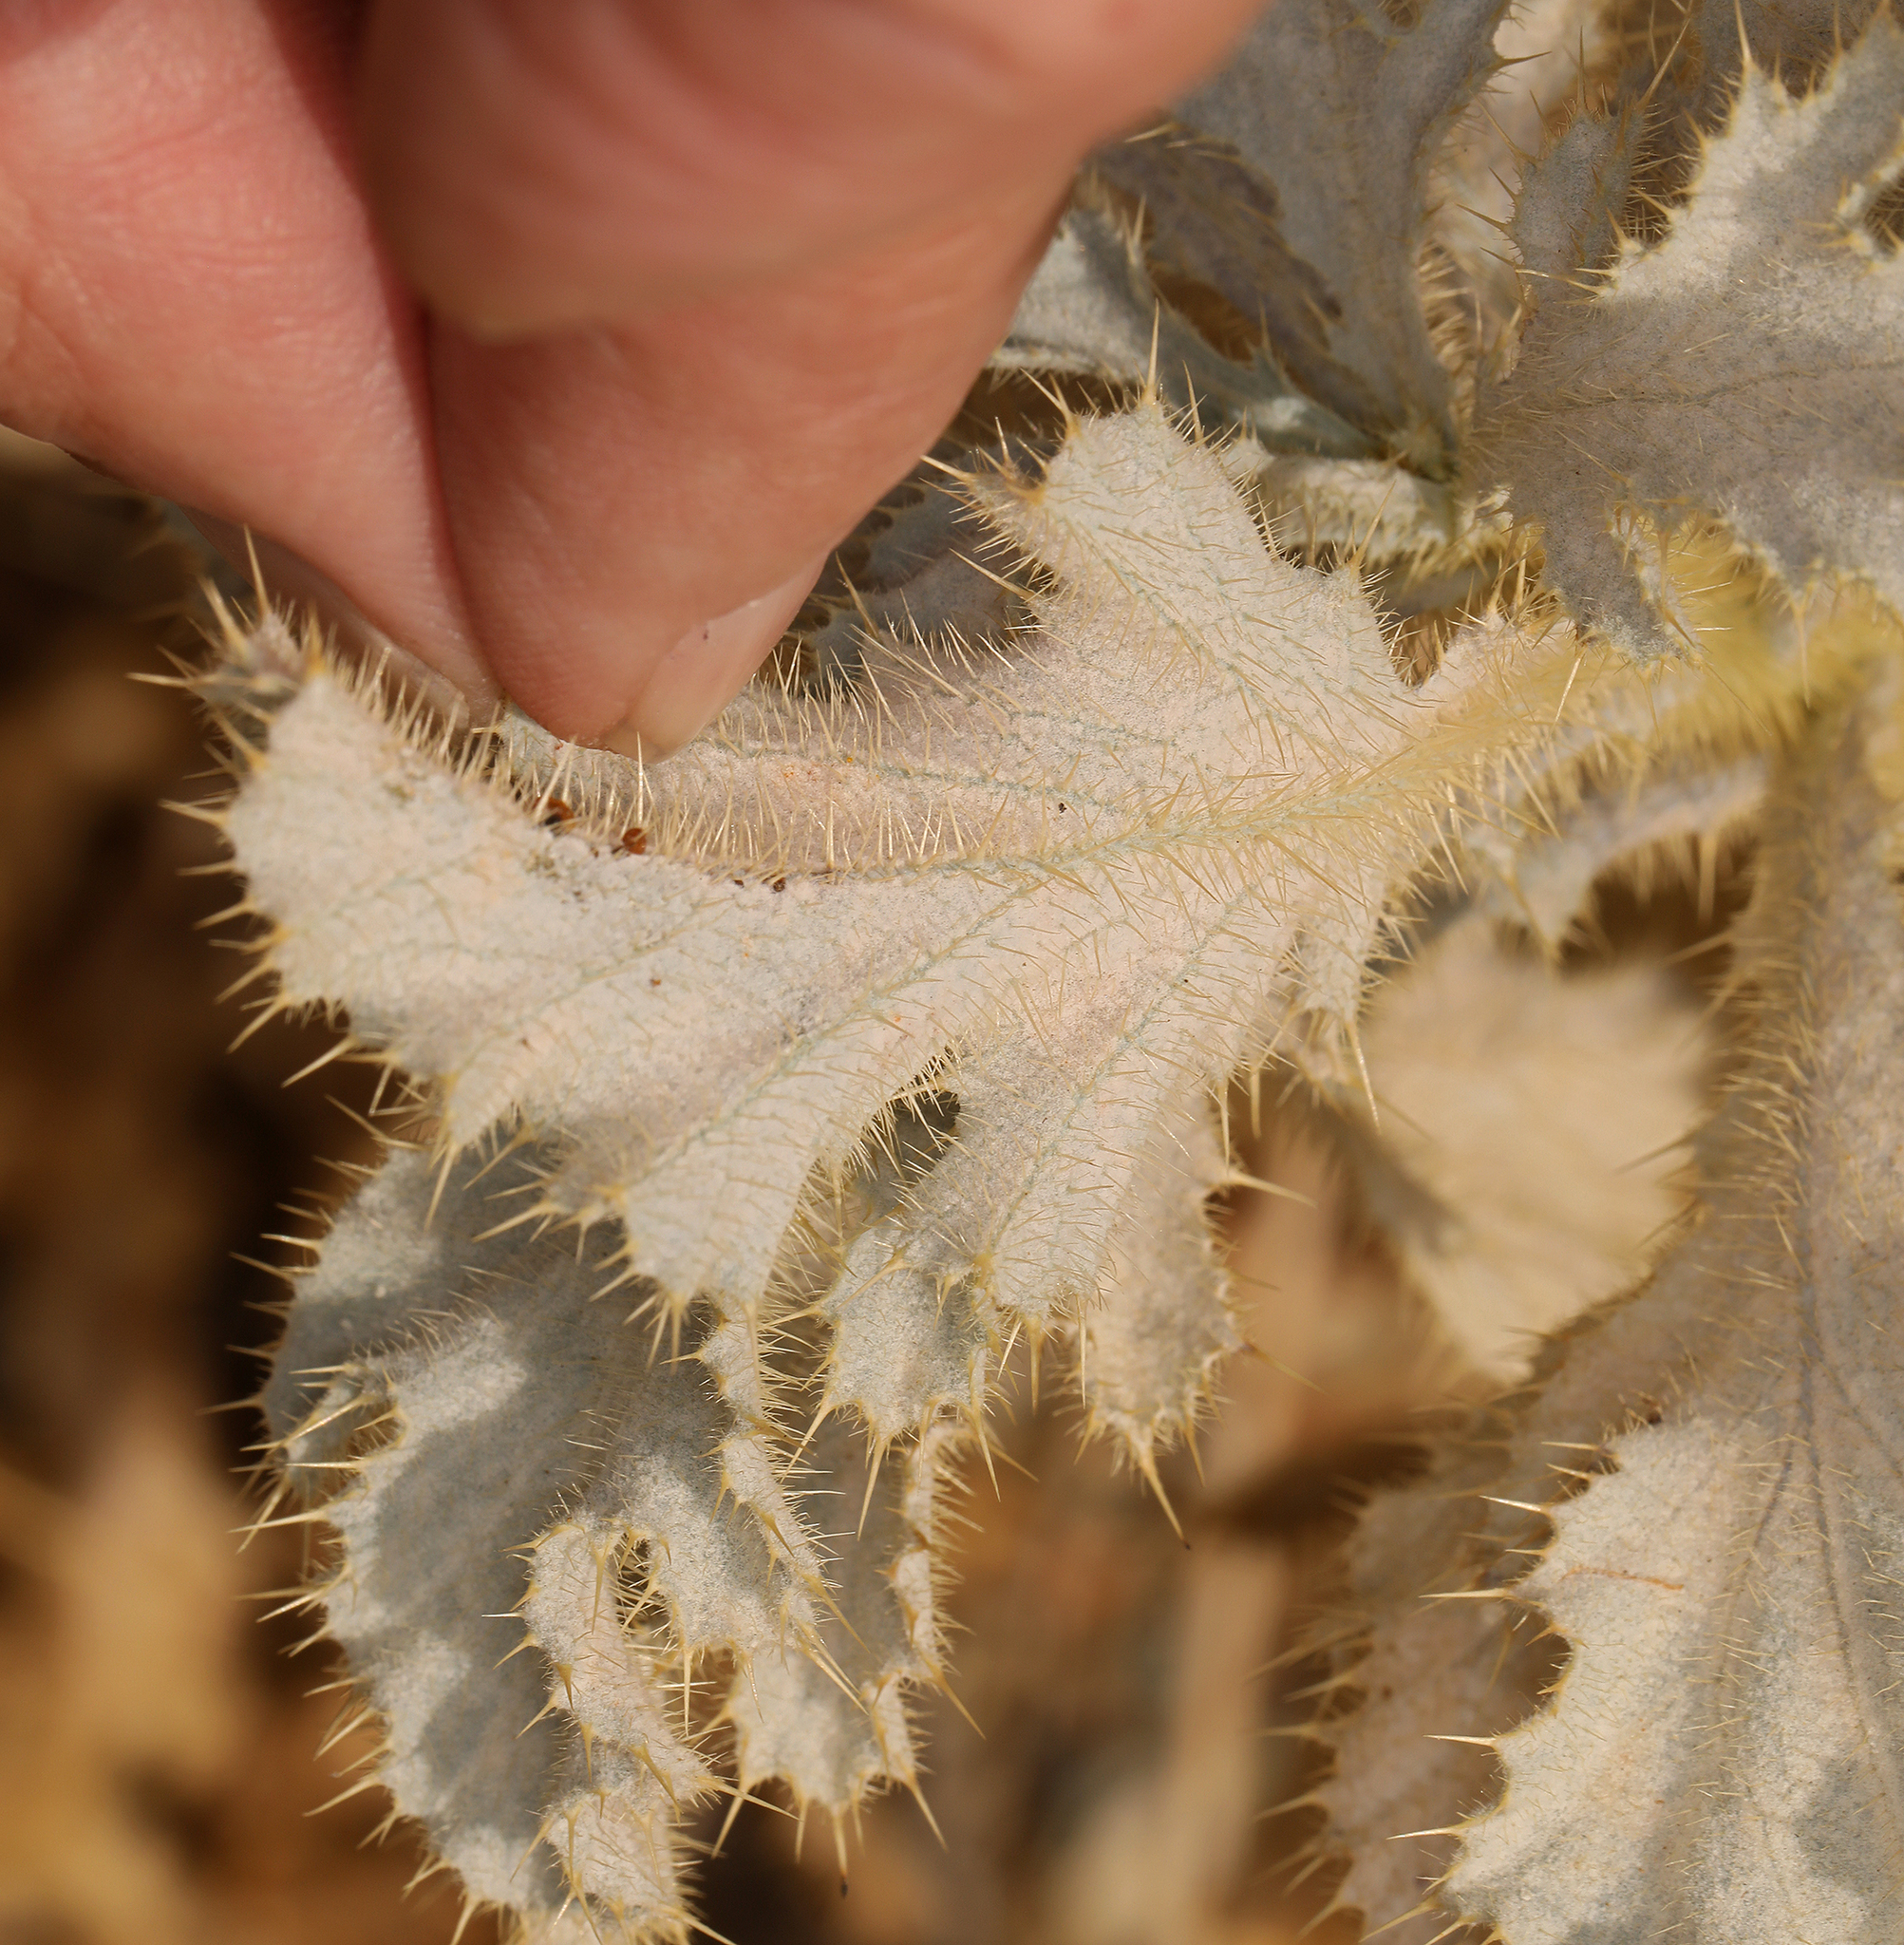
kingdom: Plantae
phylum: Tracheophyta
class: Magnoliopsida
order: Ranunculales
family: Papaveraceae
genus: Argemone
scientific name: Argemone munita
